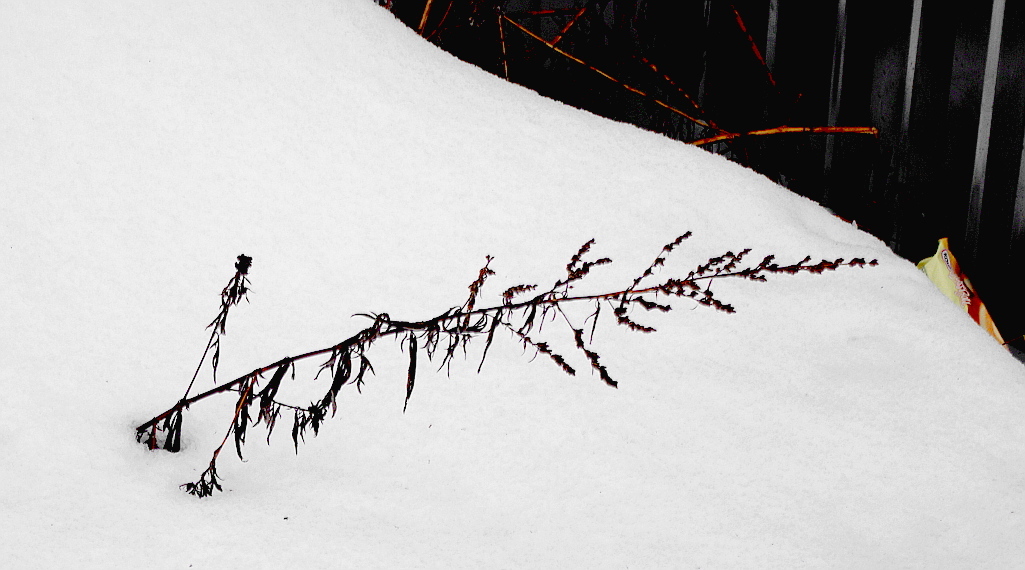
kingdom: Plantae
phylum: Tracheophyta
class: Magnoliopsida
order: Asterales
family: Asteraceae
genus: Artemisia
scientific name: Artemisia vulgaris
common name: Mugwort
